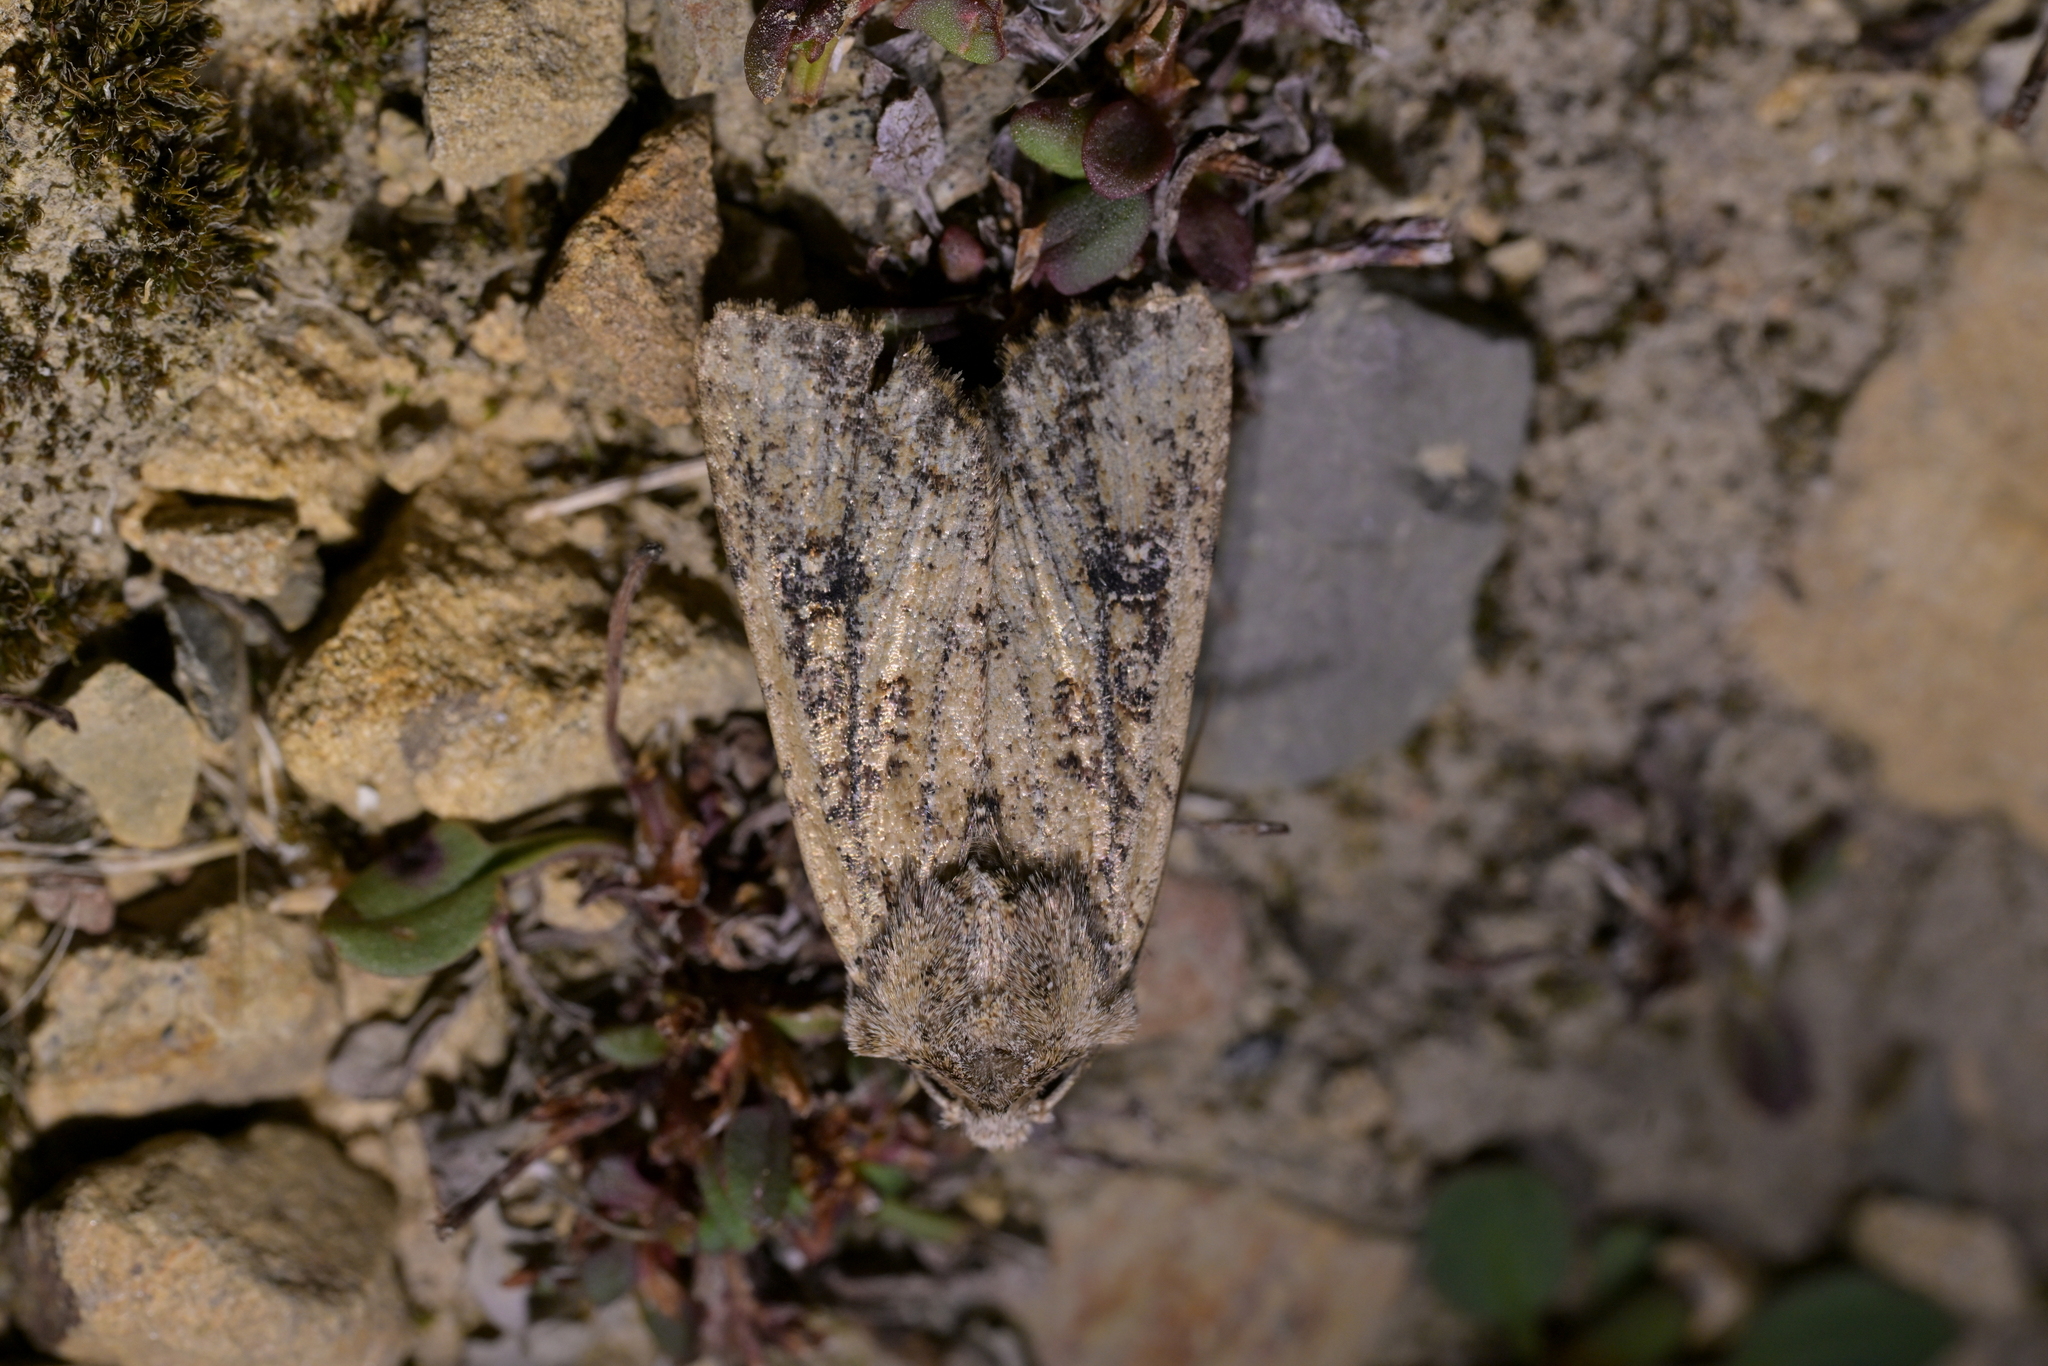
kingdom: Animalia
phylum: Arthropoda
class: Insecta
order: Lepidoptera
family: Noctuidae
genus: Ichneutica
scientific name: Ichneutica morosa
